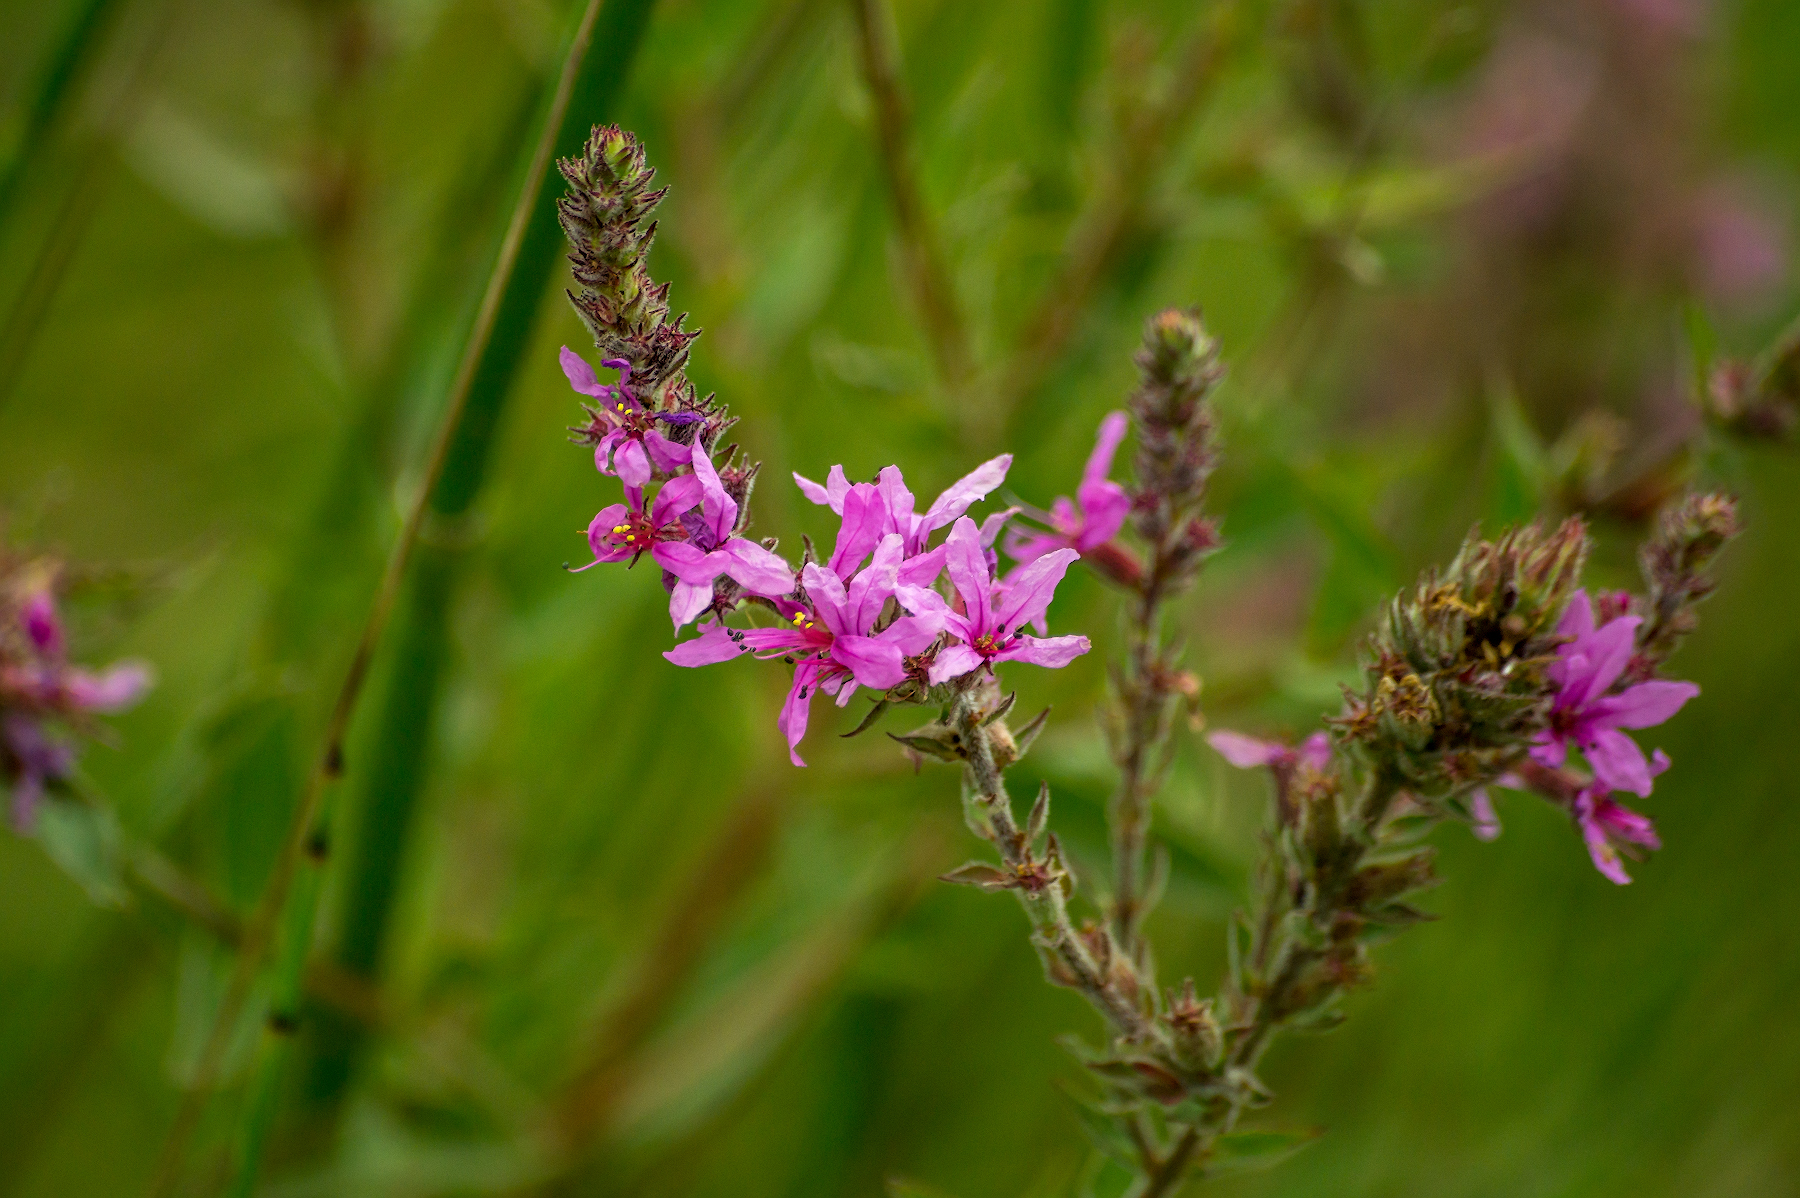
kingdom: Plantae
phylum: Tracheophyta
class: Magnoliopsida
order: Myrtales
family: Lythraceae
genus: Lythrum
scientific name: Lythrum salicaria
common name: Purple loosestrife
